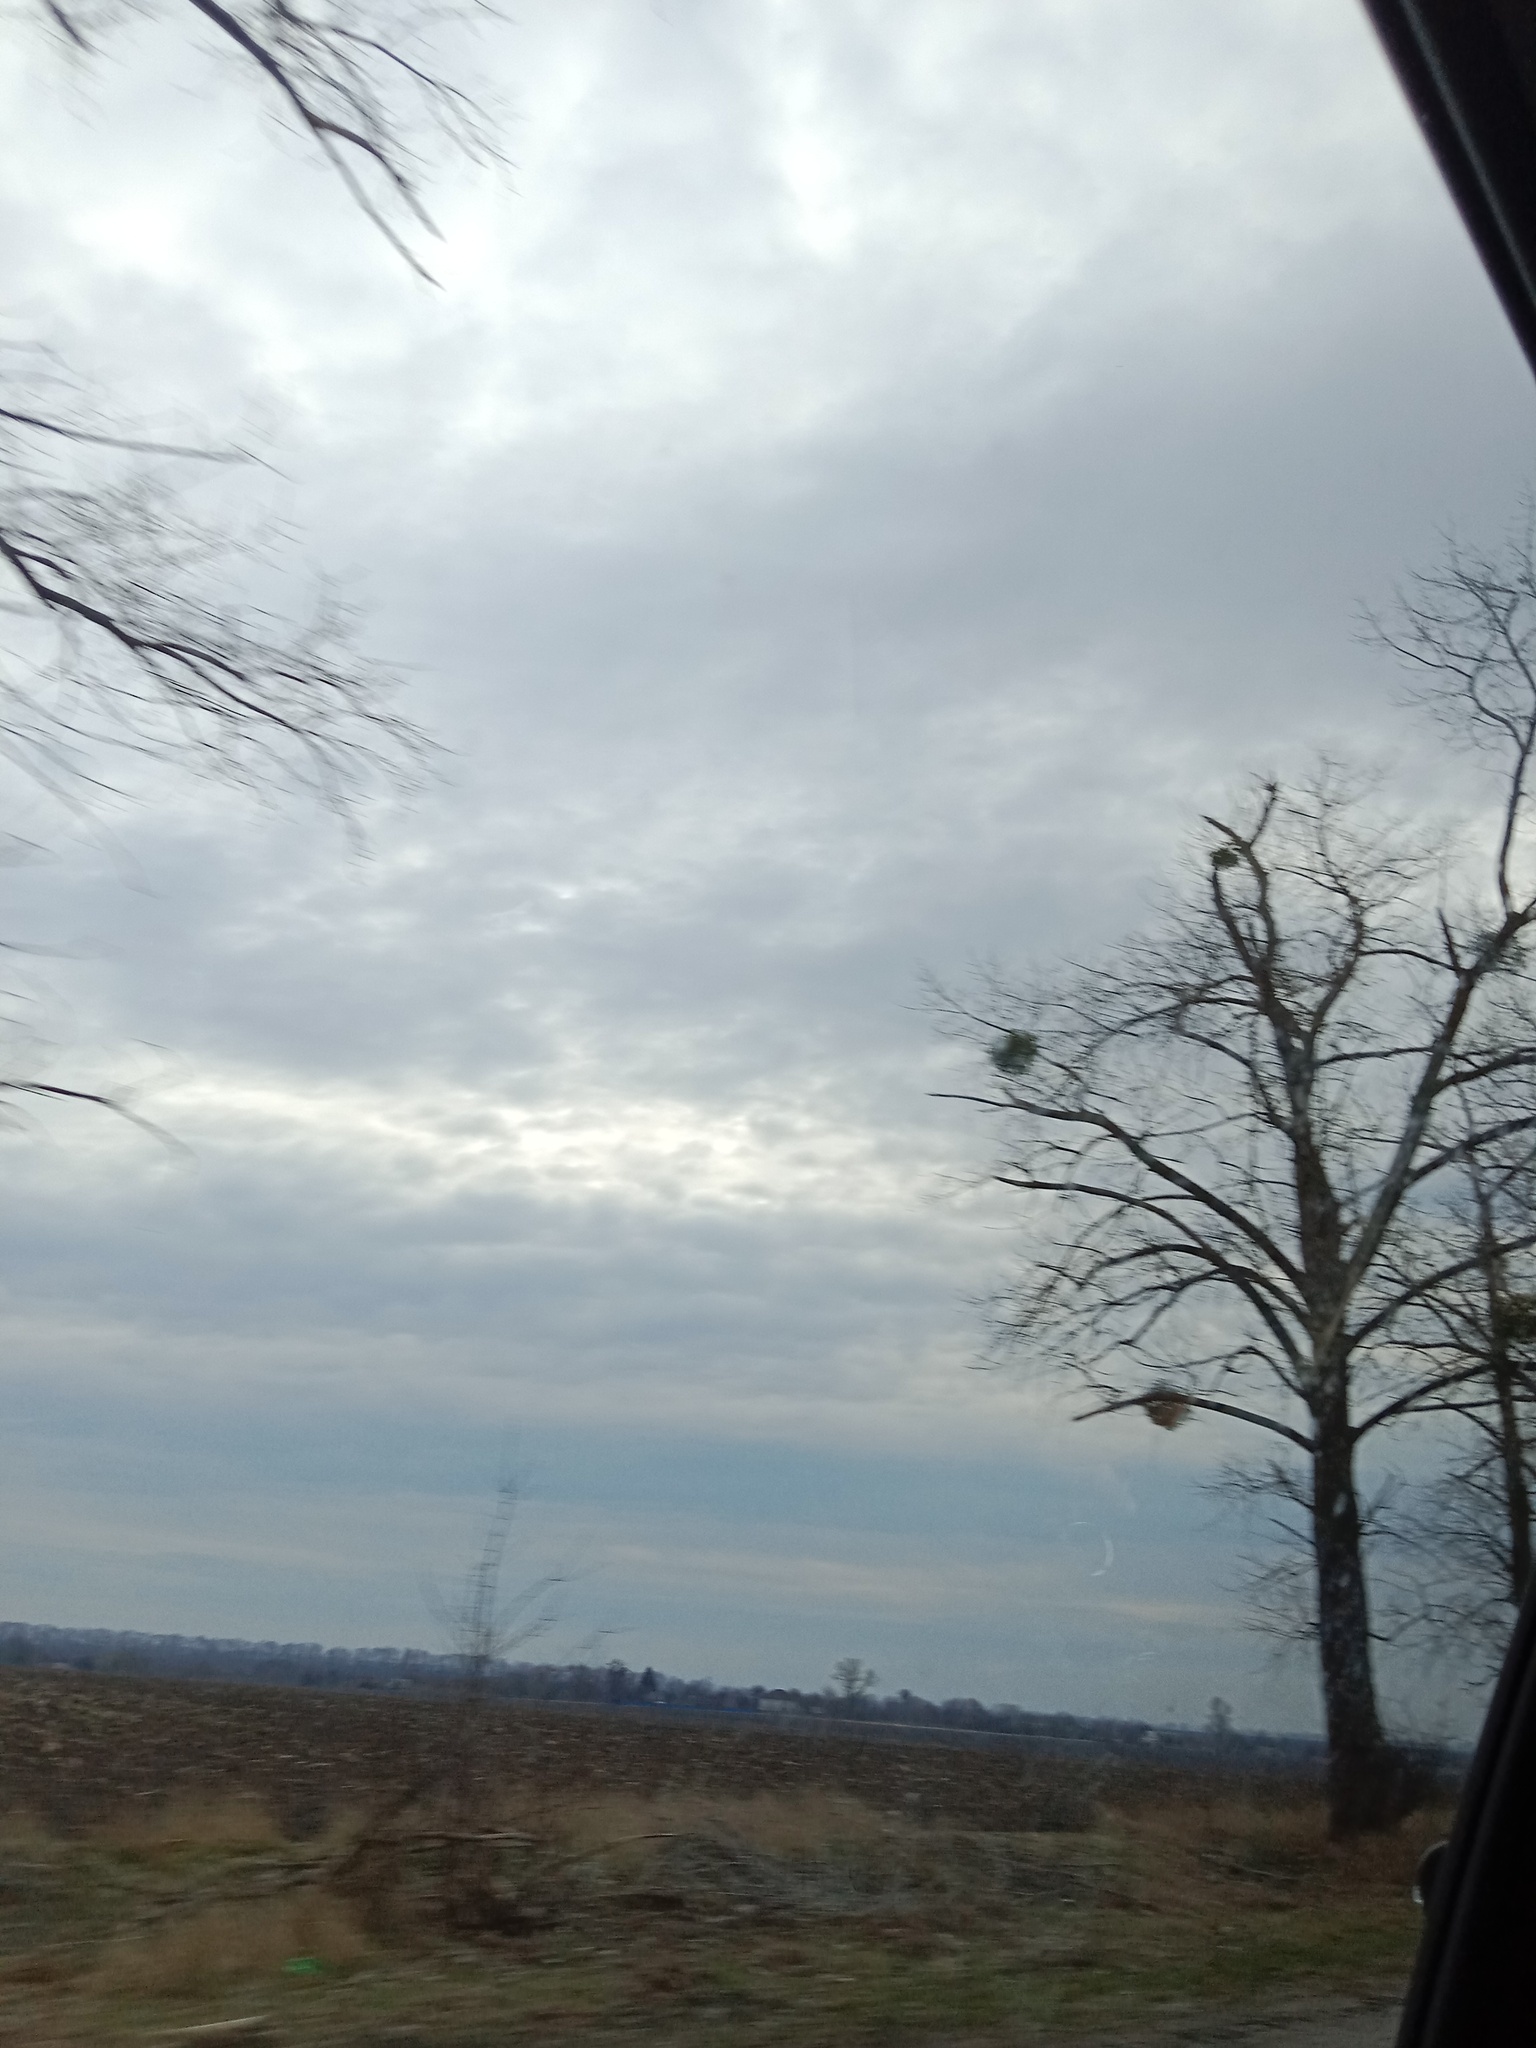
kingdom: Plantae
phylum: Tracheophyta
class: Magnoliopsida
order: Santalales
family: Viscaceae
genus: Viscum
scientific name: Viscum album
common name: Mistletoe
